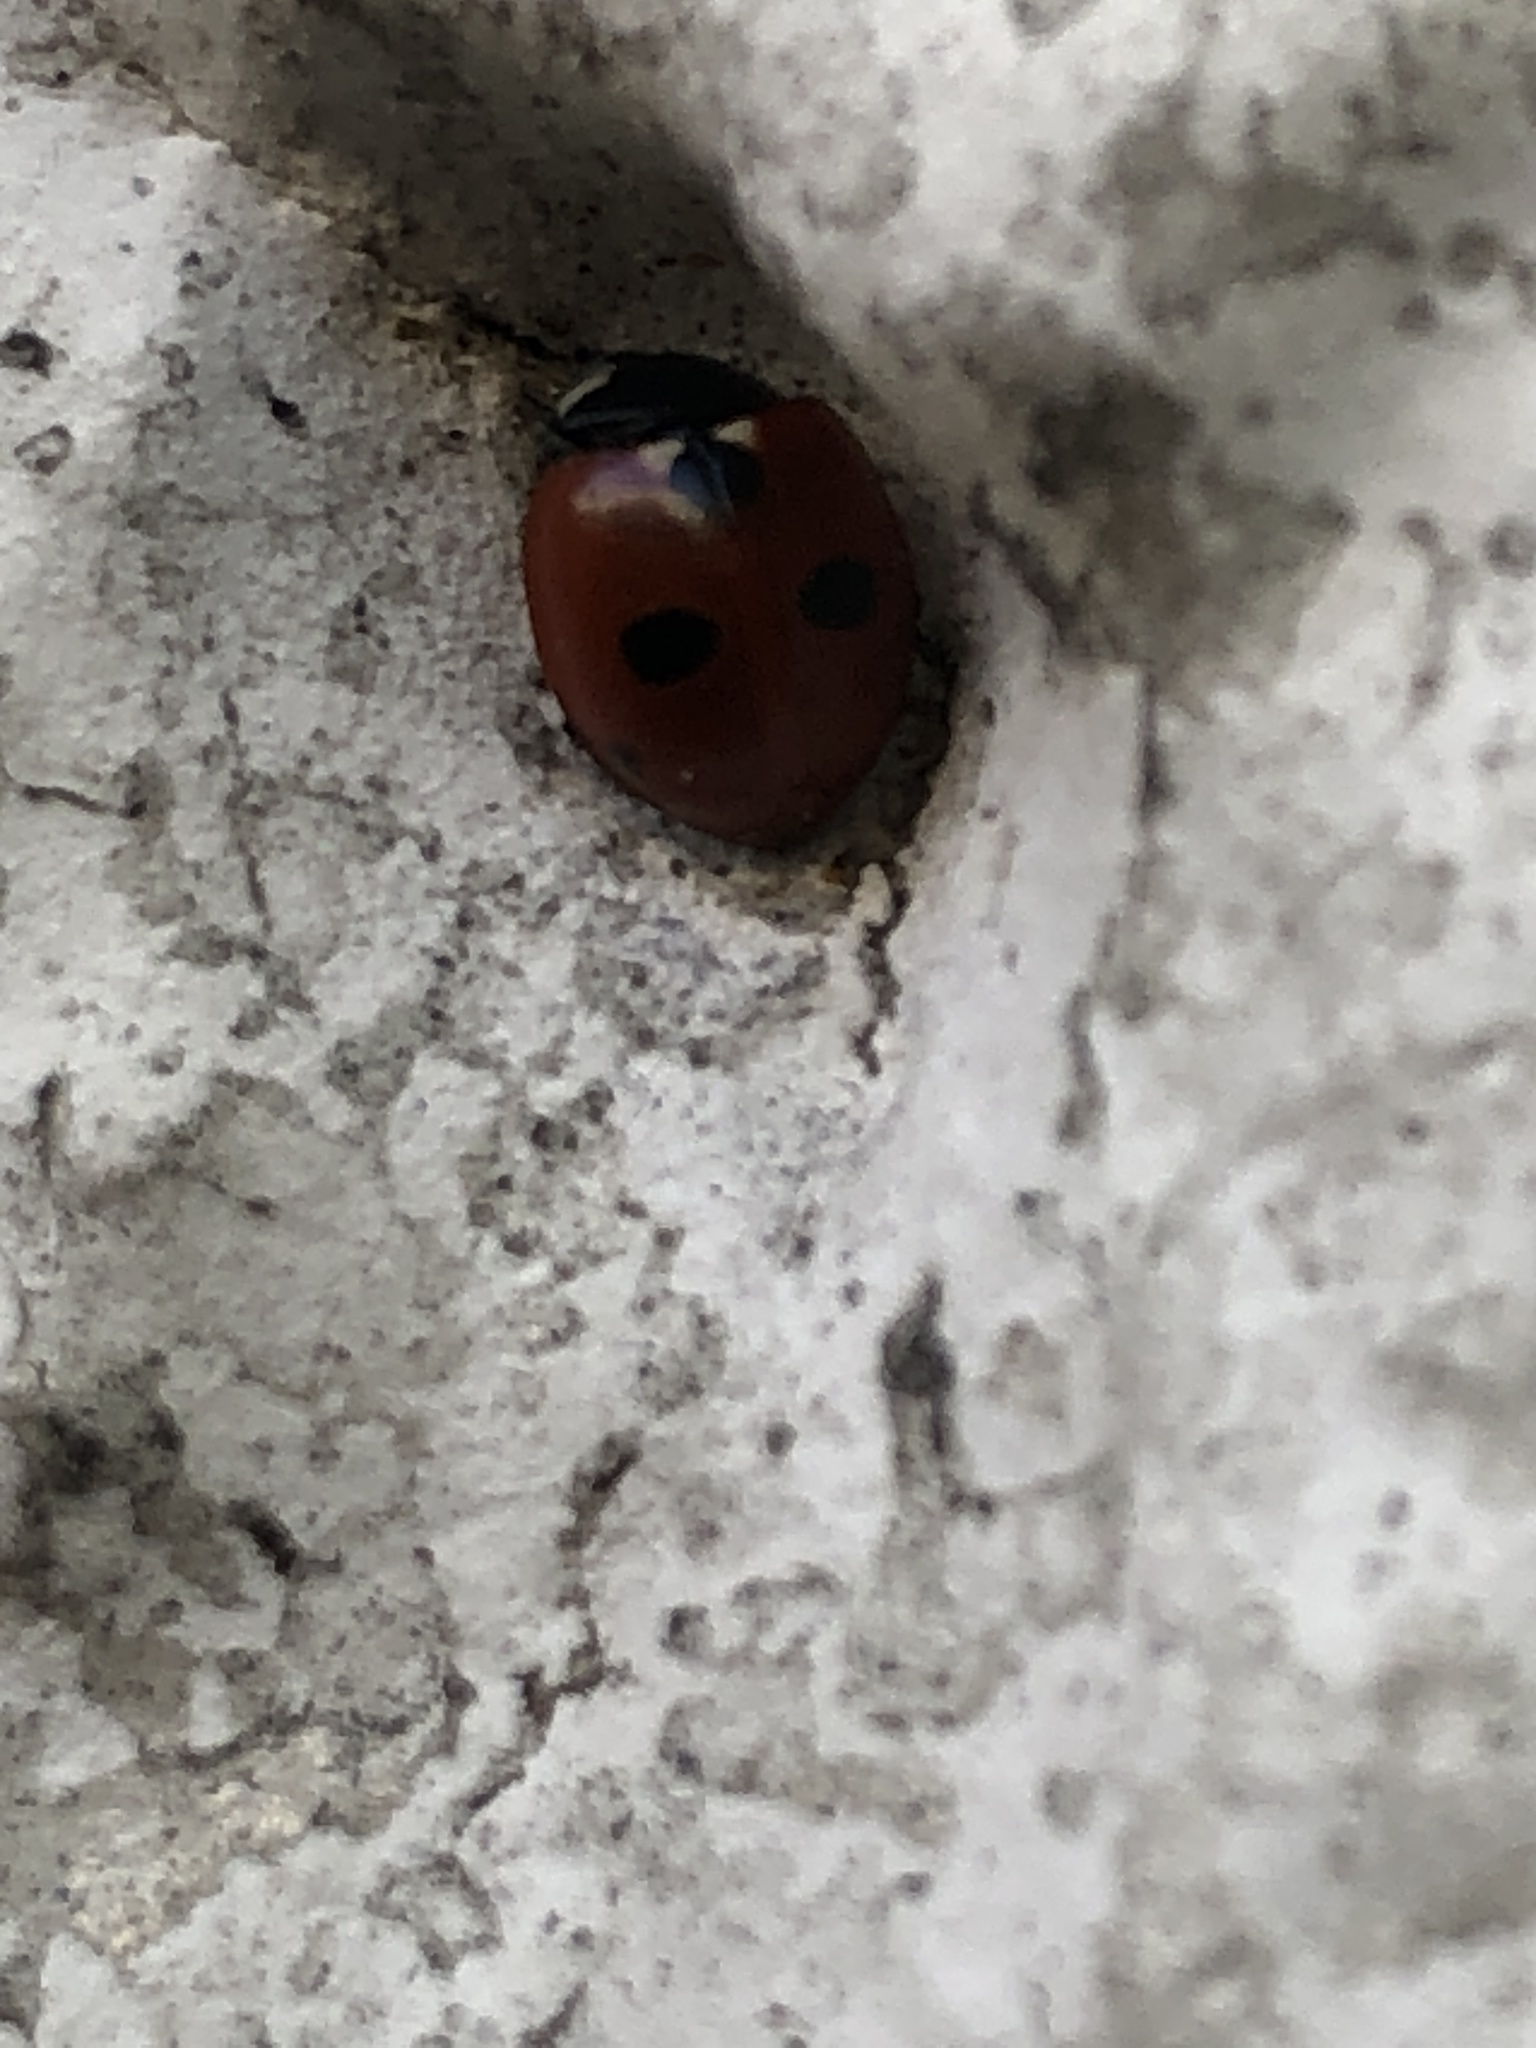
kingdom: Animalia
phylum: Arthropoda
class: Insecta
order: Coleoptera
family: Coccinellidae
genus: Coccinella
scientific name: Coccinella quinquepunctata
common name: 5-spot ladybird
